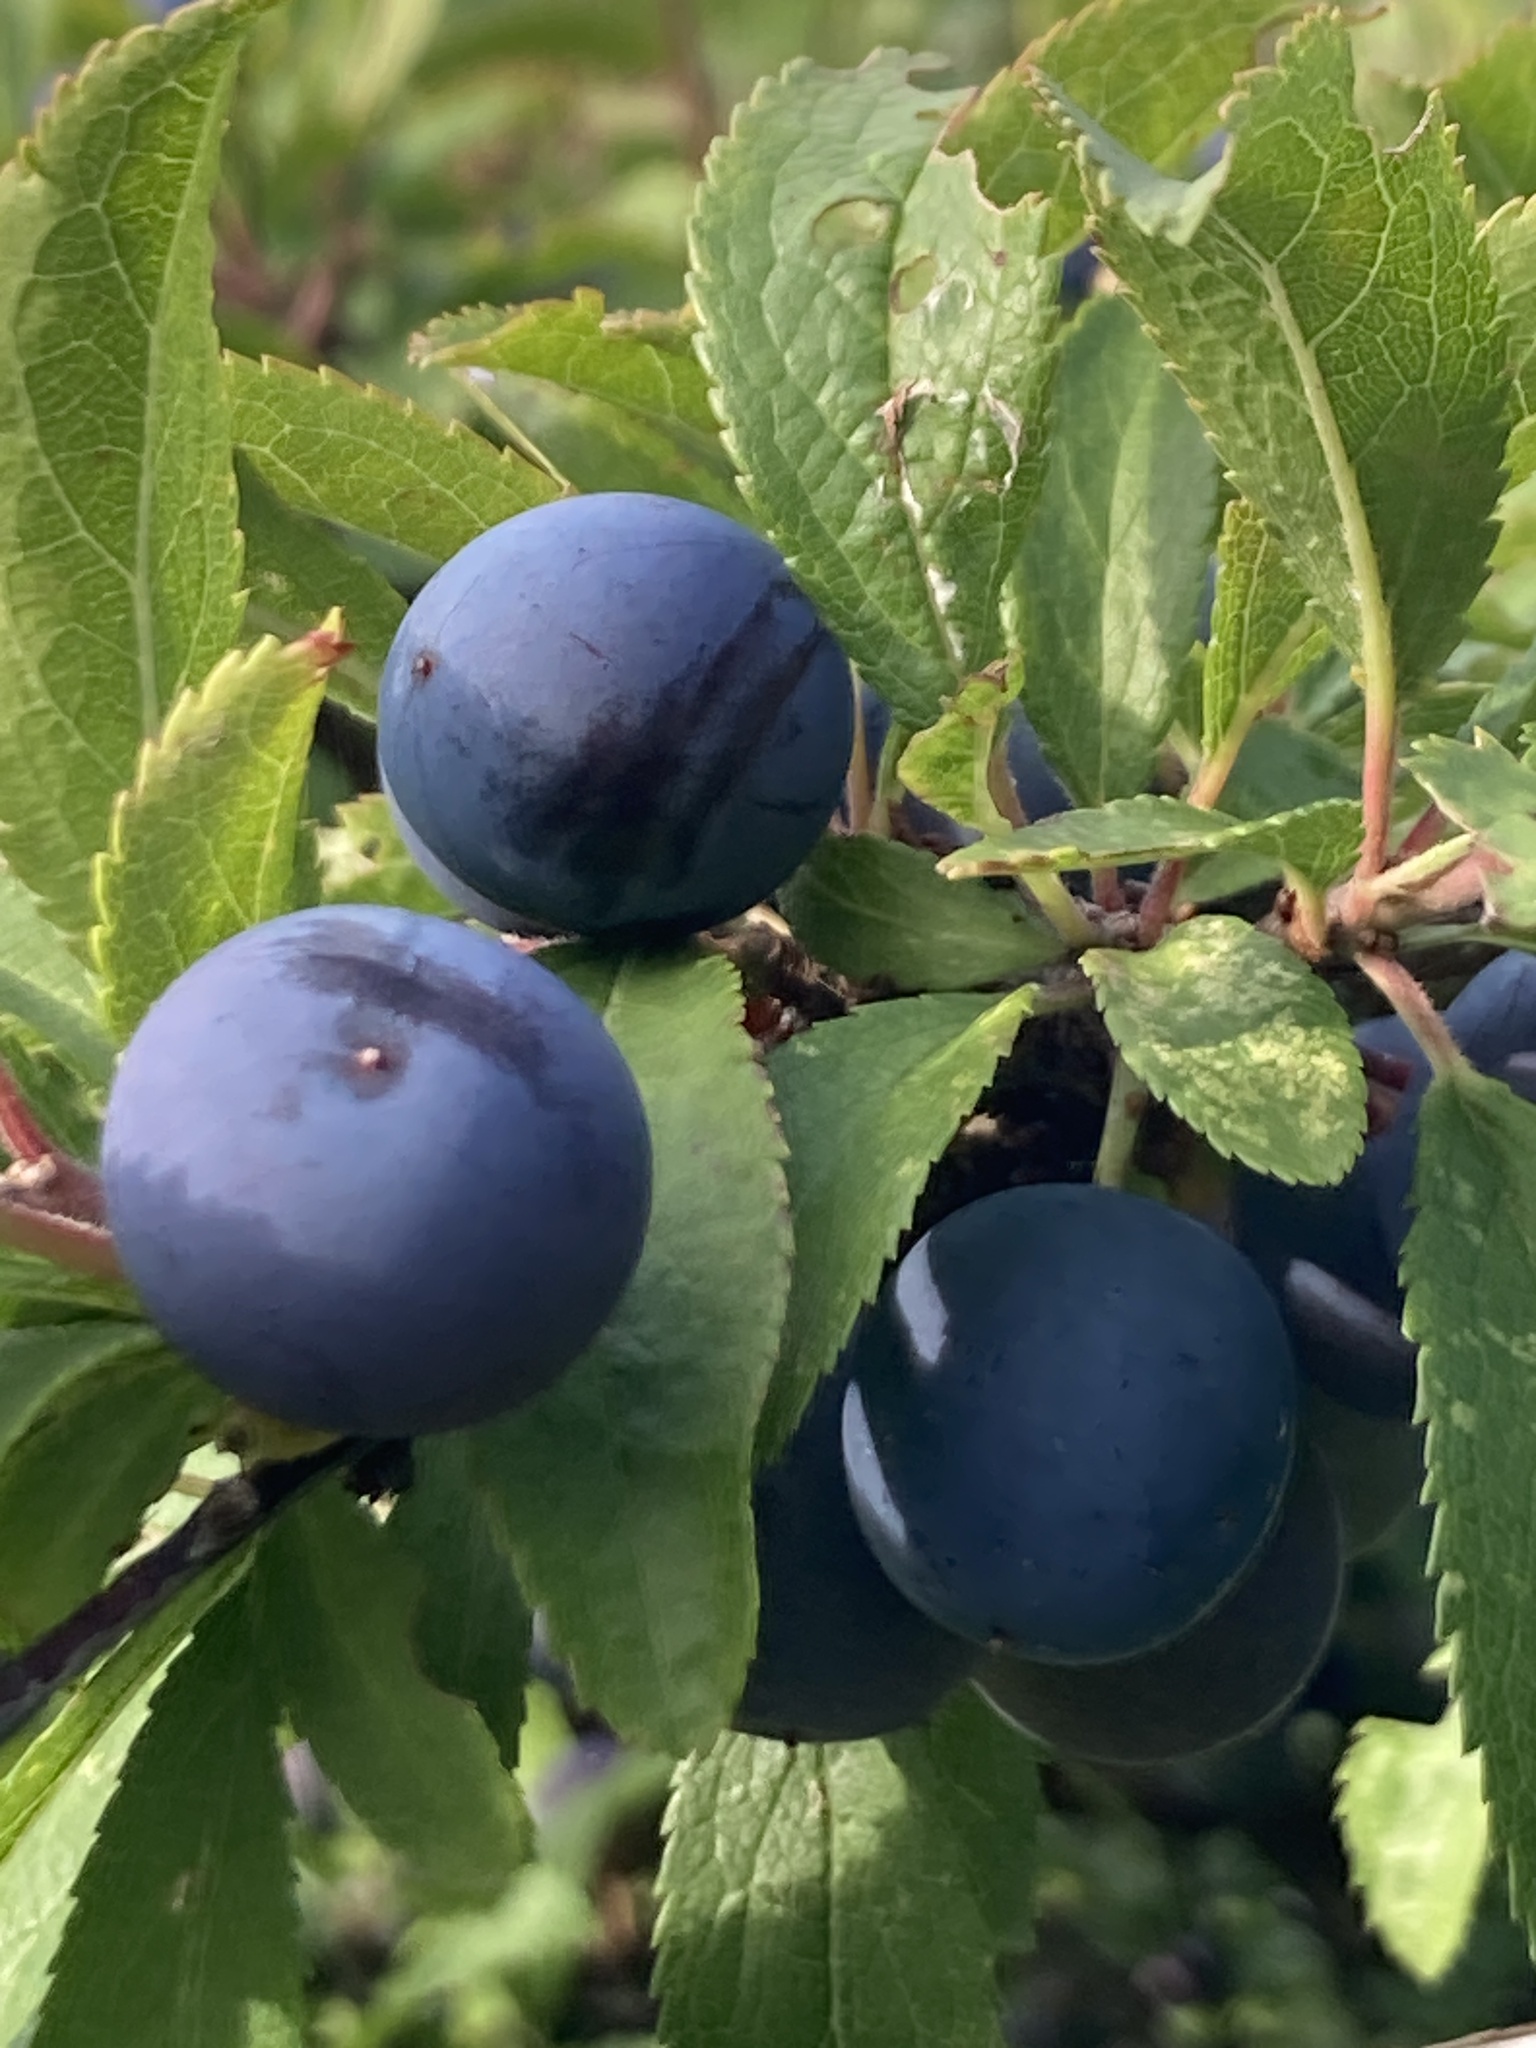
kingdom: Plantae
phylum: Tracheophyta
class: Magnoliopsida
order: Rosales
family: Rosaceae
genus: Prunus
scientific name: Prunus spinosa
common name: Blackthorn
